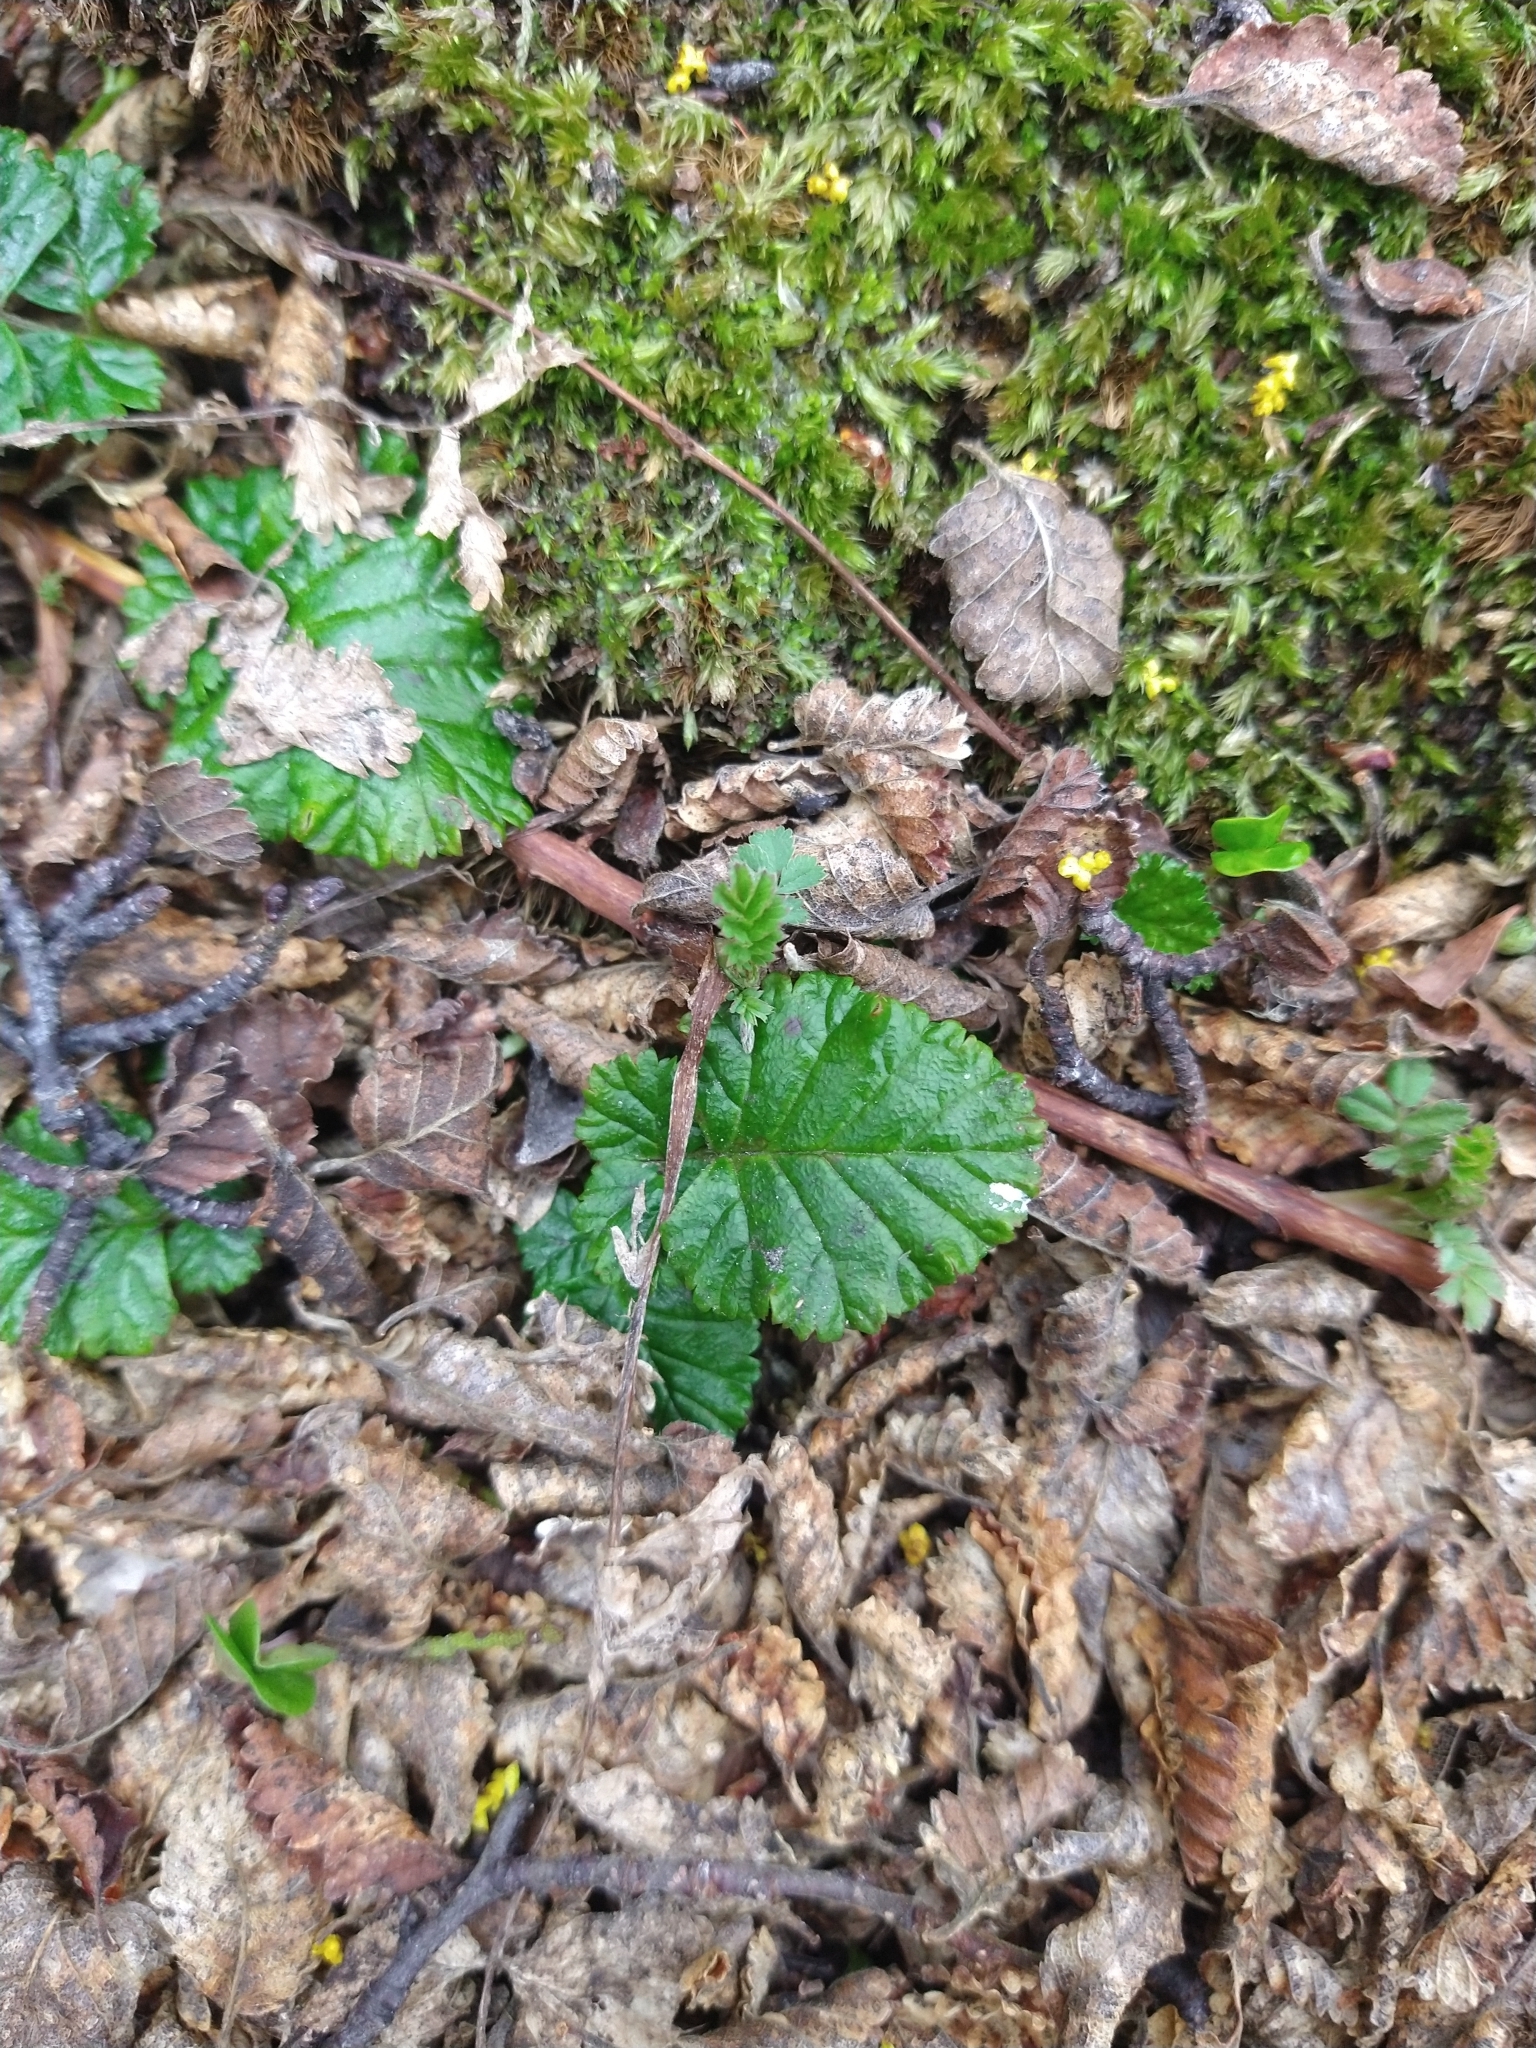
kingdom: Plantae
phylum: Tracheophyta
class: Magnoliopsida
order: Rosales
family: Rosaceae
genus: Rubus
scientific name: Rubus geoides
